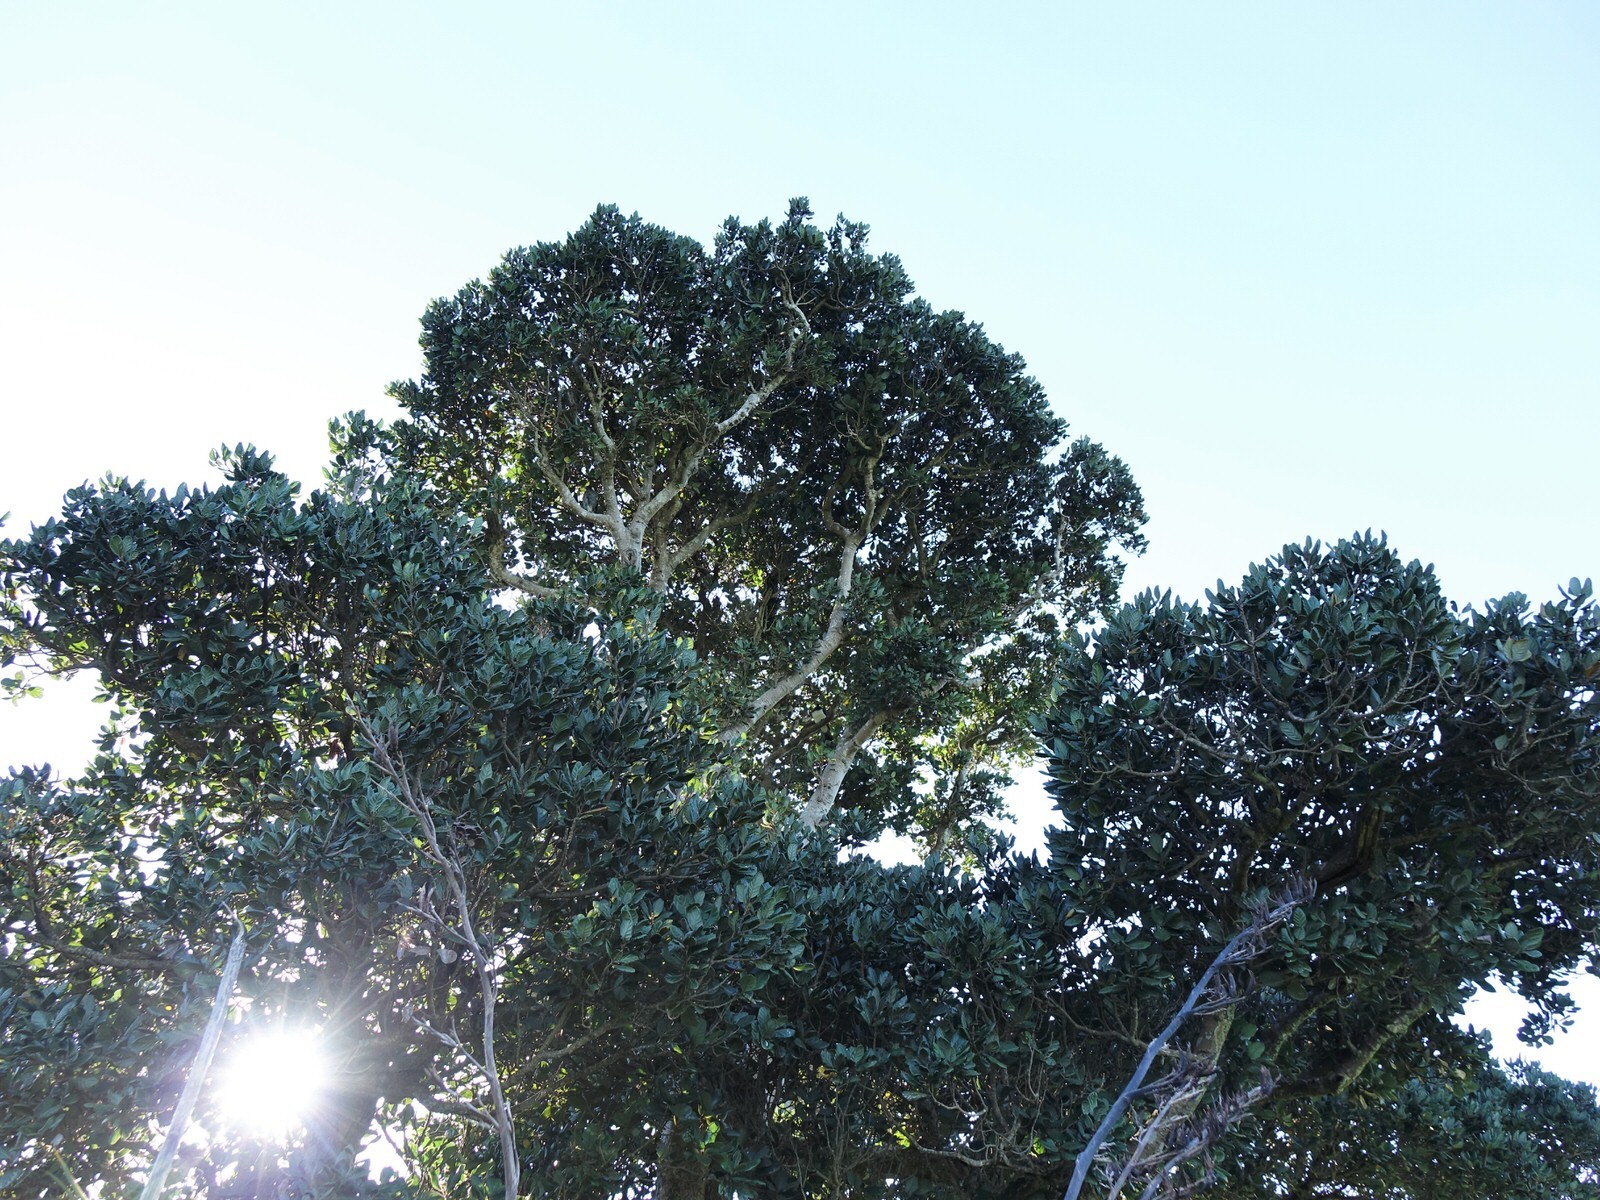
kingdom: Animalia
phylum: Chordata
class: Aves
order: Columbiformes
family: Columbidae
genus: Hemiphaga
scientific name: Hemiphaga novaeseelandiae
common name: New zealand pigeon
